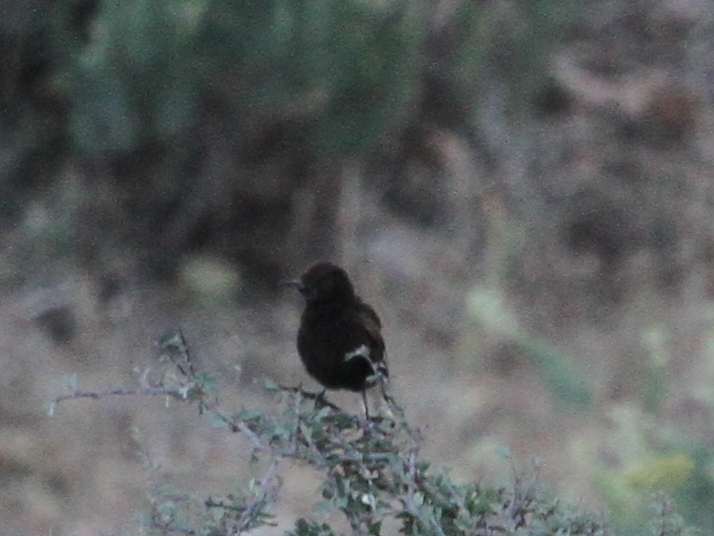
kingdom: Animalia
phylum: Chordata
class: Aves
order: Passeriformes
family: Muscicapidae
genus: Oenanthe
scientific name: Oenanthe leucura
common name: Black wheatear
